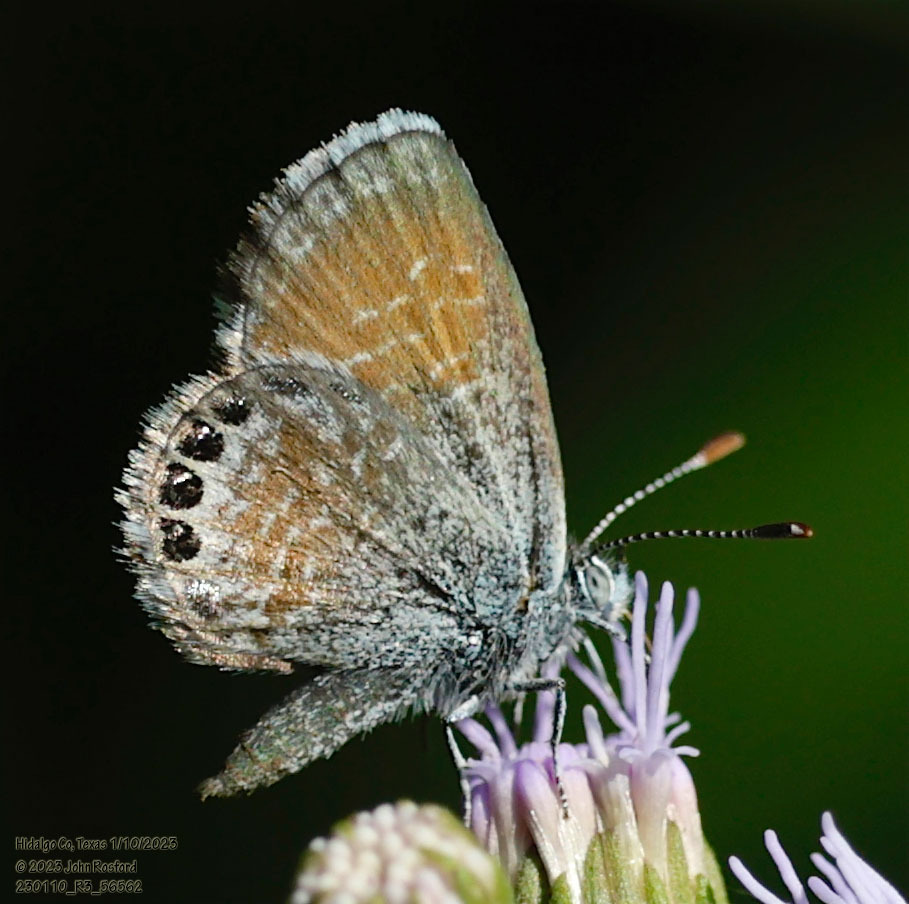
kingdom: Animalia
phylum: Arthropoda
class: Insecta
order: Lepidoptera
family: Lycaenidae
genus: Brephidium
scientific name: Brephidium exilis
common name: Pygmy blue
